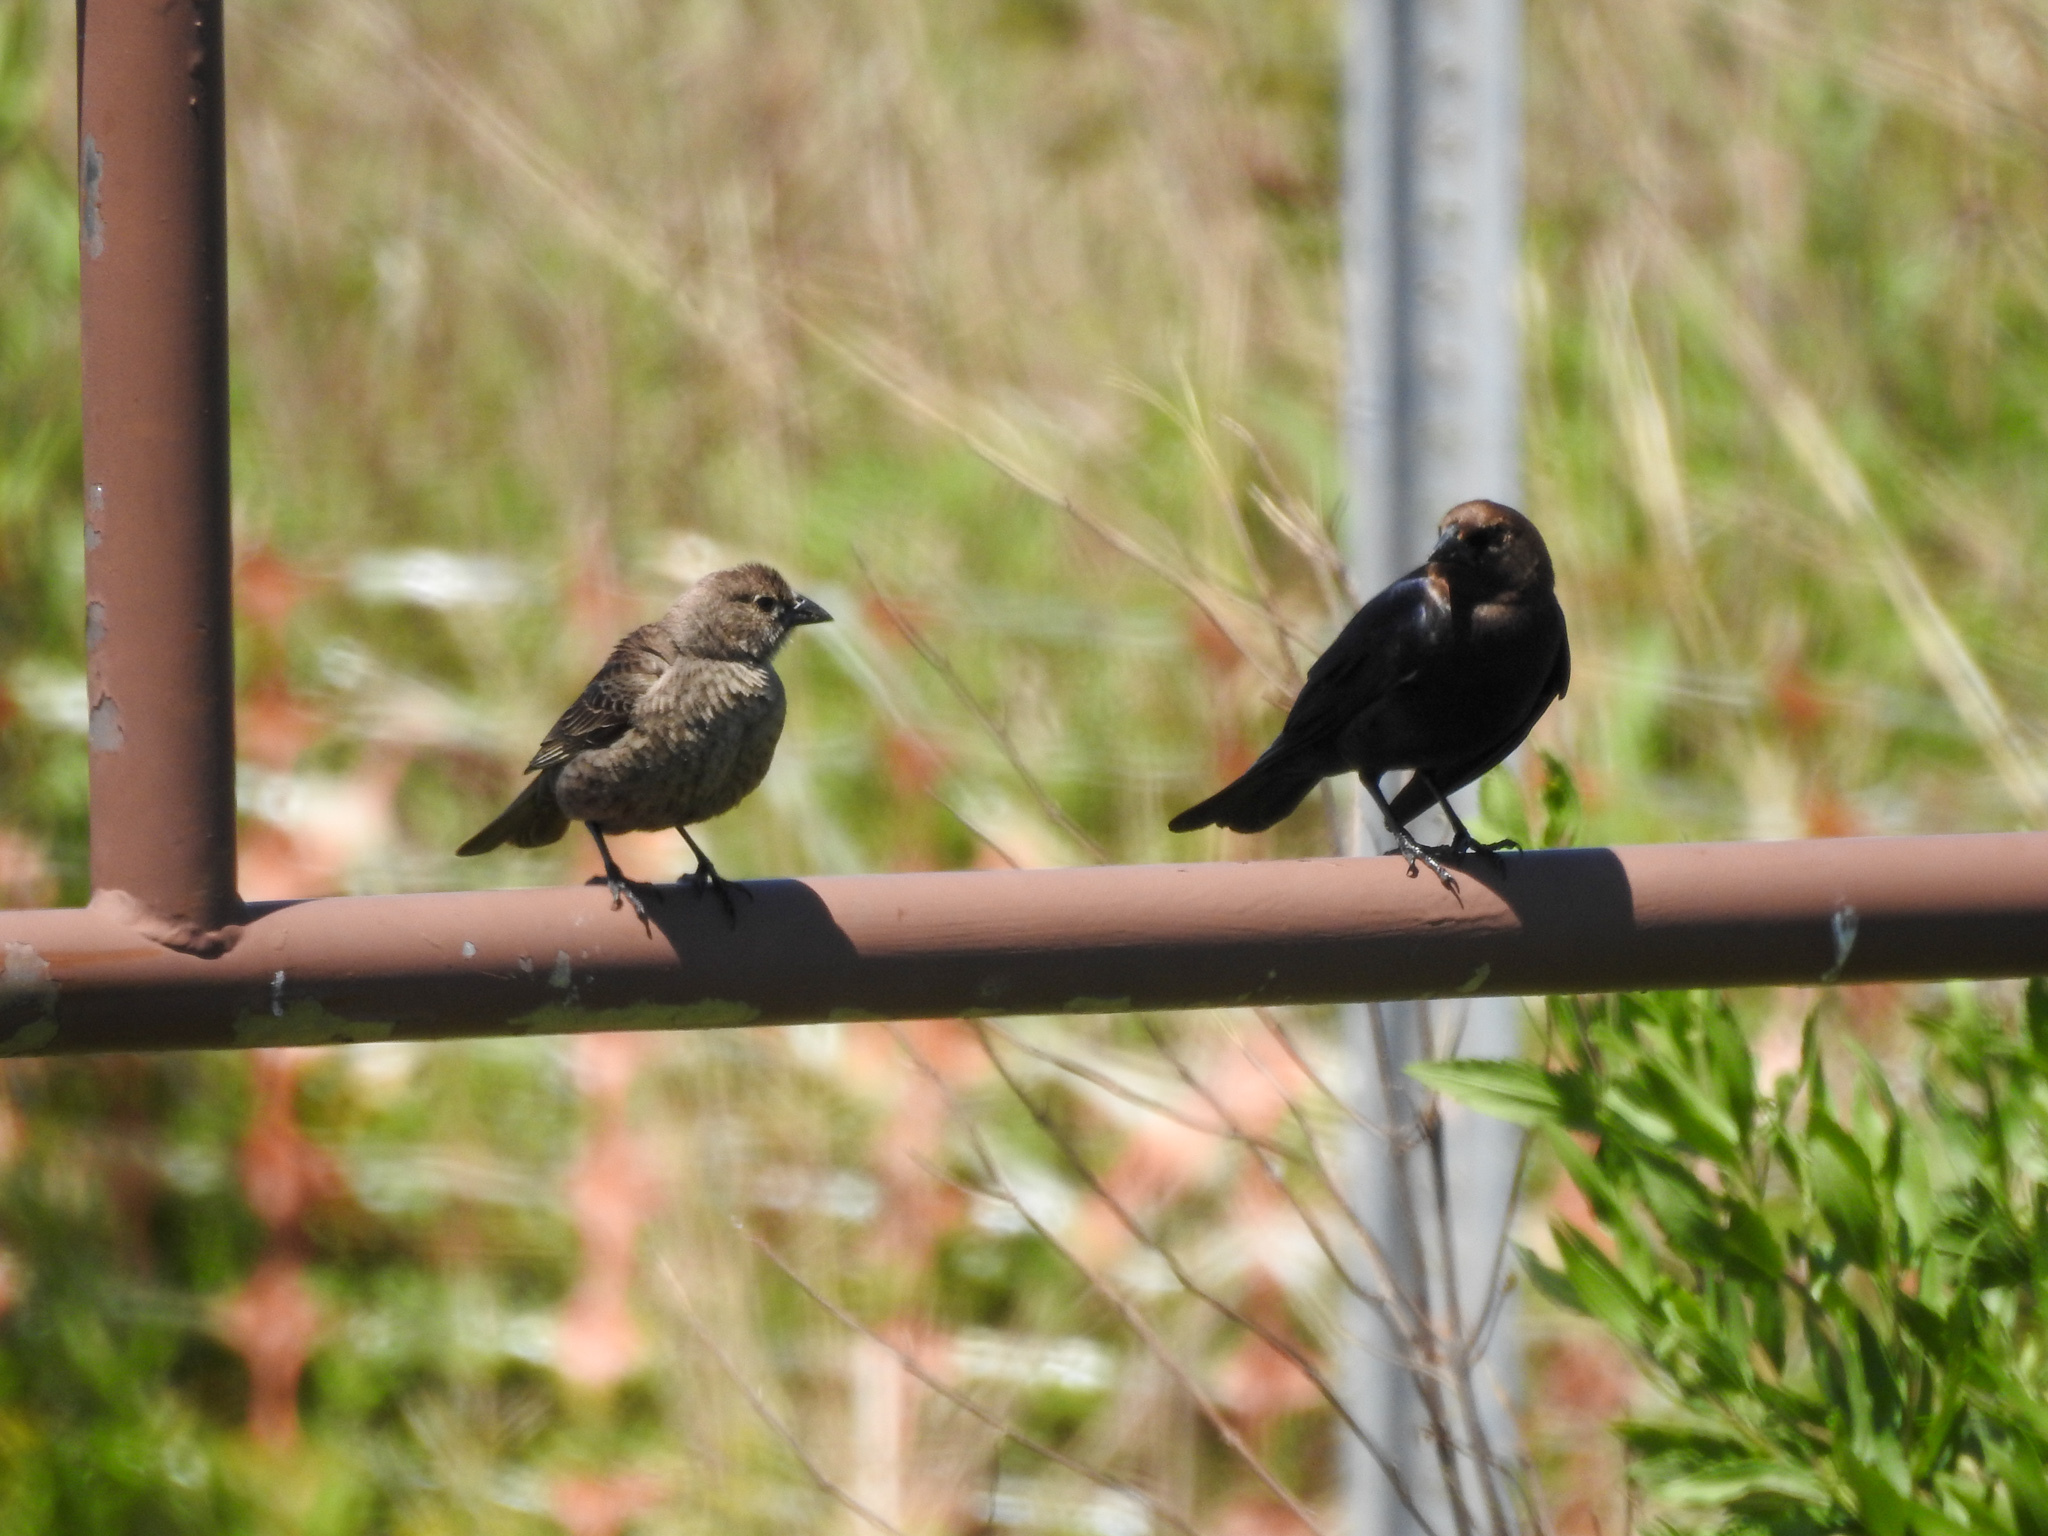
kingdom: Animalia
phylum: Chordata
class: Aves
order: Passeriformes
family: Icteridae
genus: Molothrus
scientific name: Molothrus ater
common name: Brown-headed cowbird
